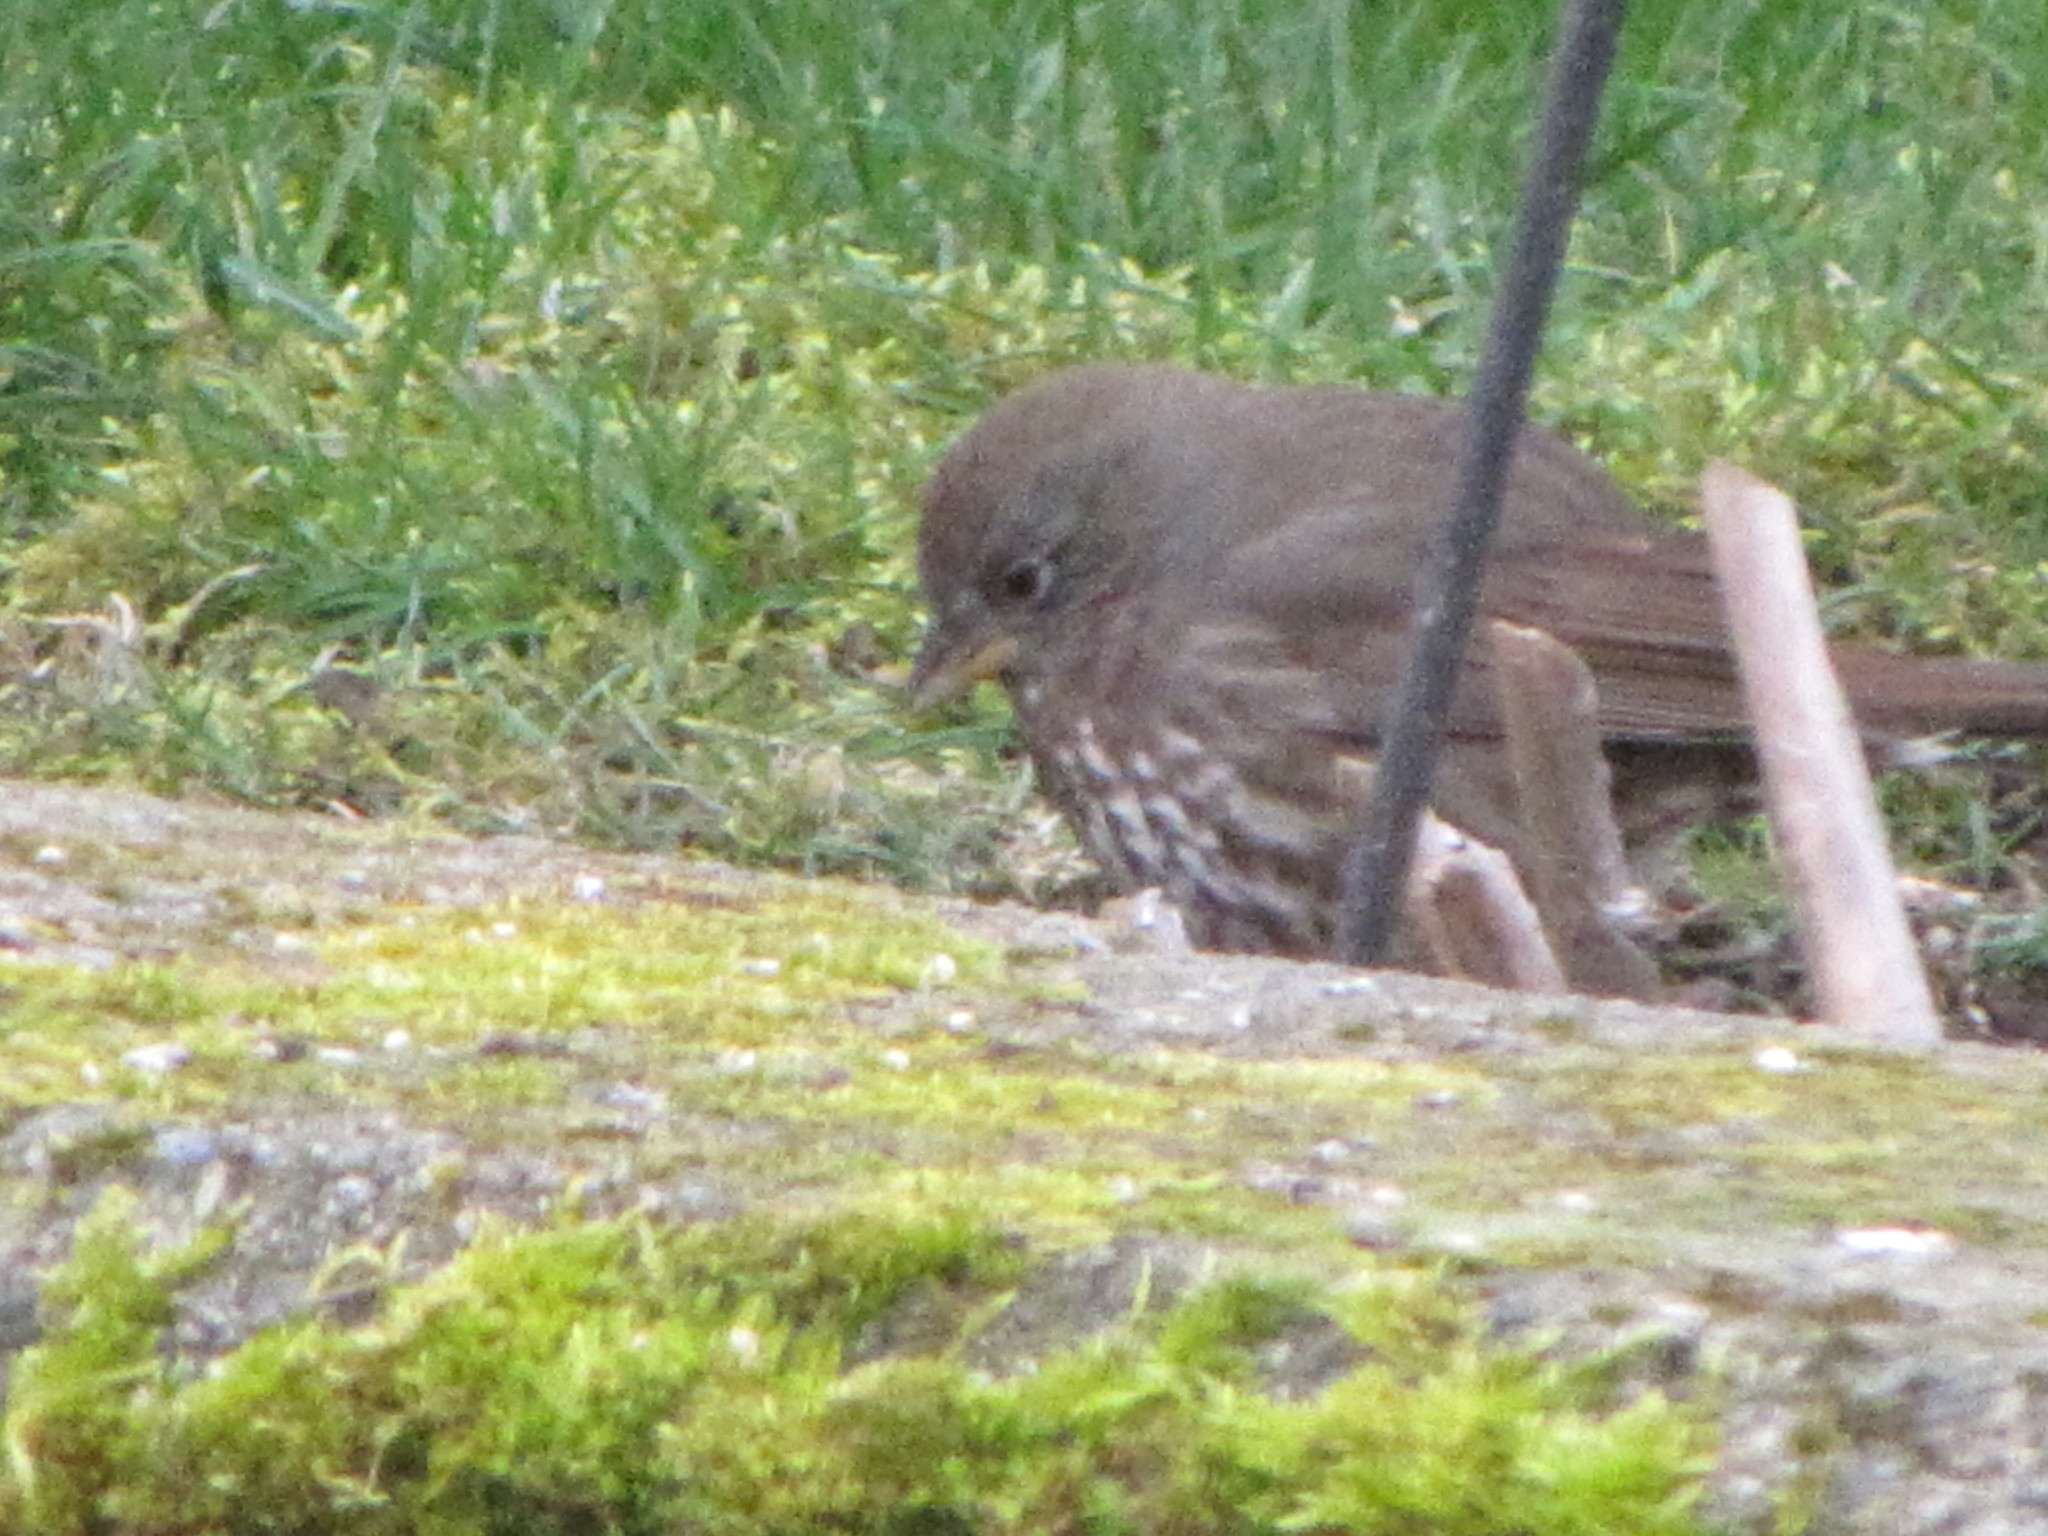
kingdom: Animalia
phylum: Chordata
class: Aves
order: Passeriformes
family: Passerellidae
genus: Passerella
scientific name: Passerella iliaca
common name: Fox sparrow
